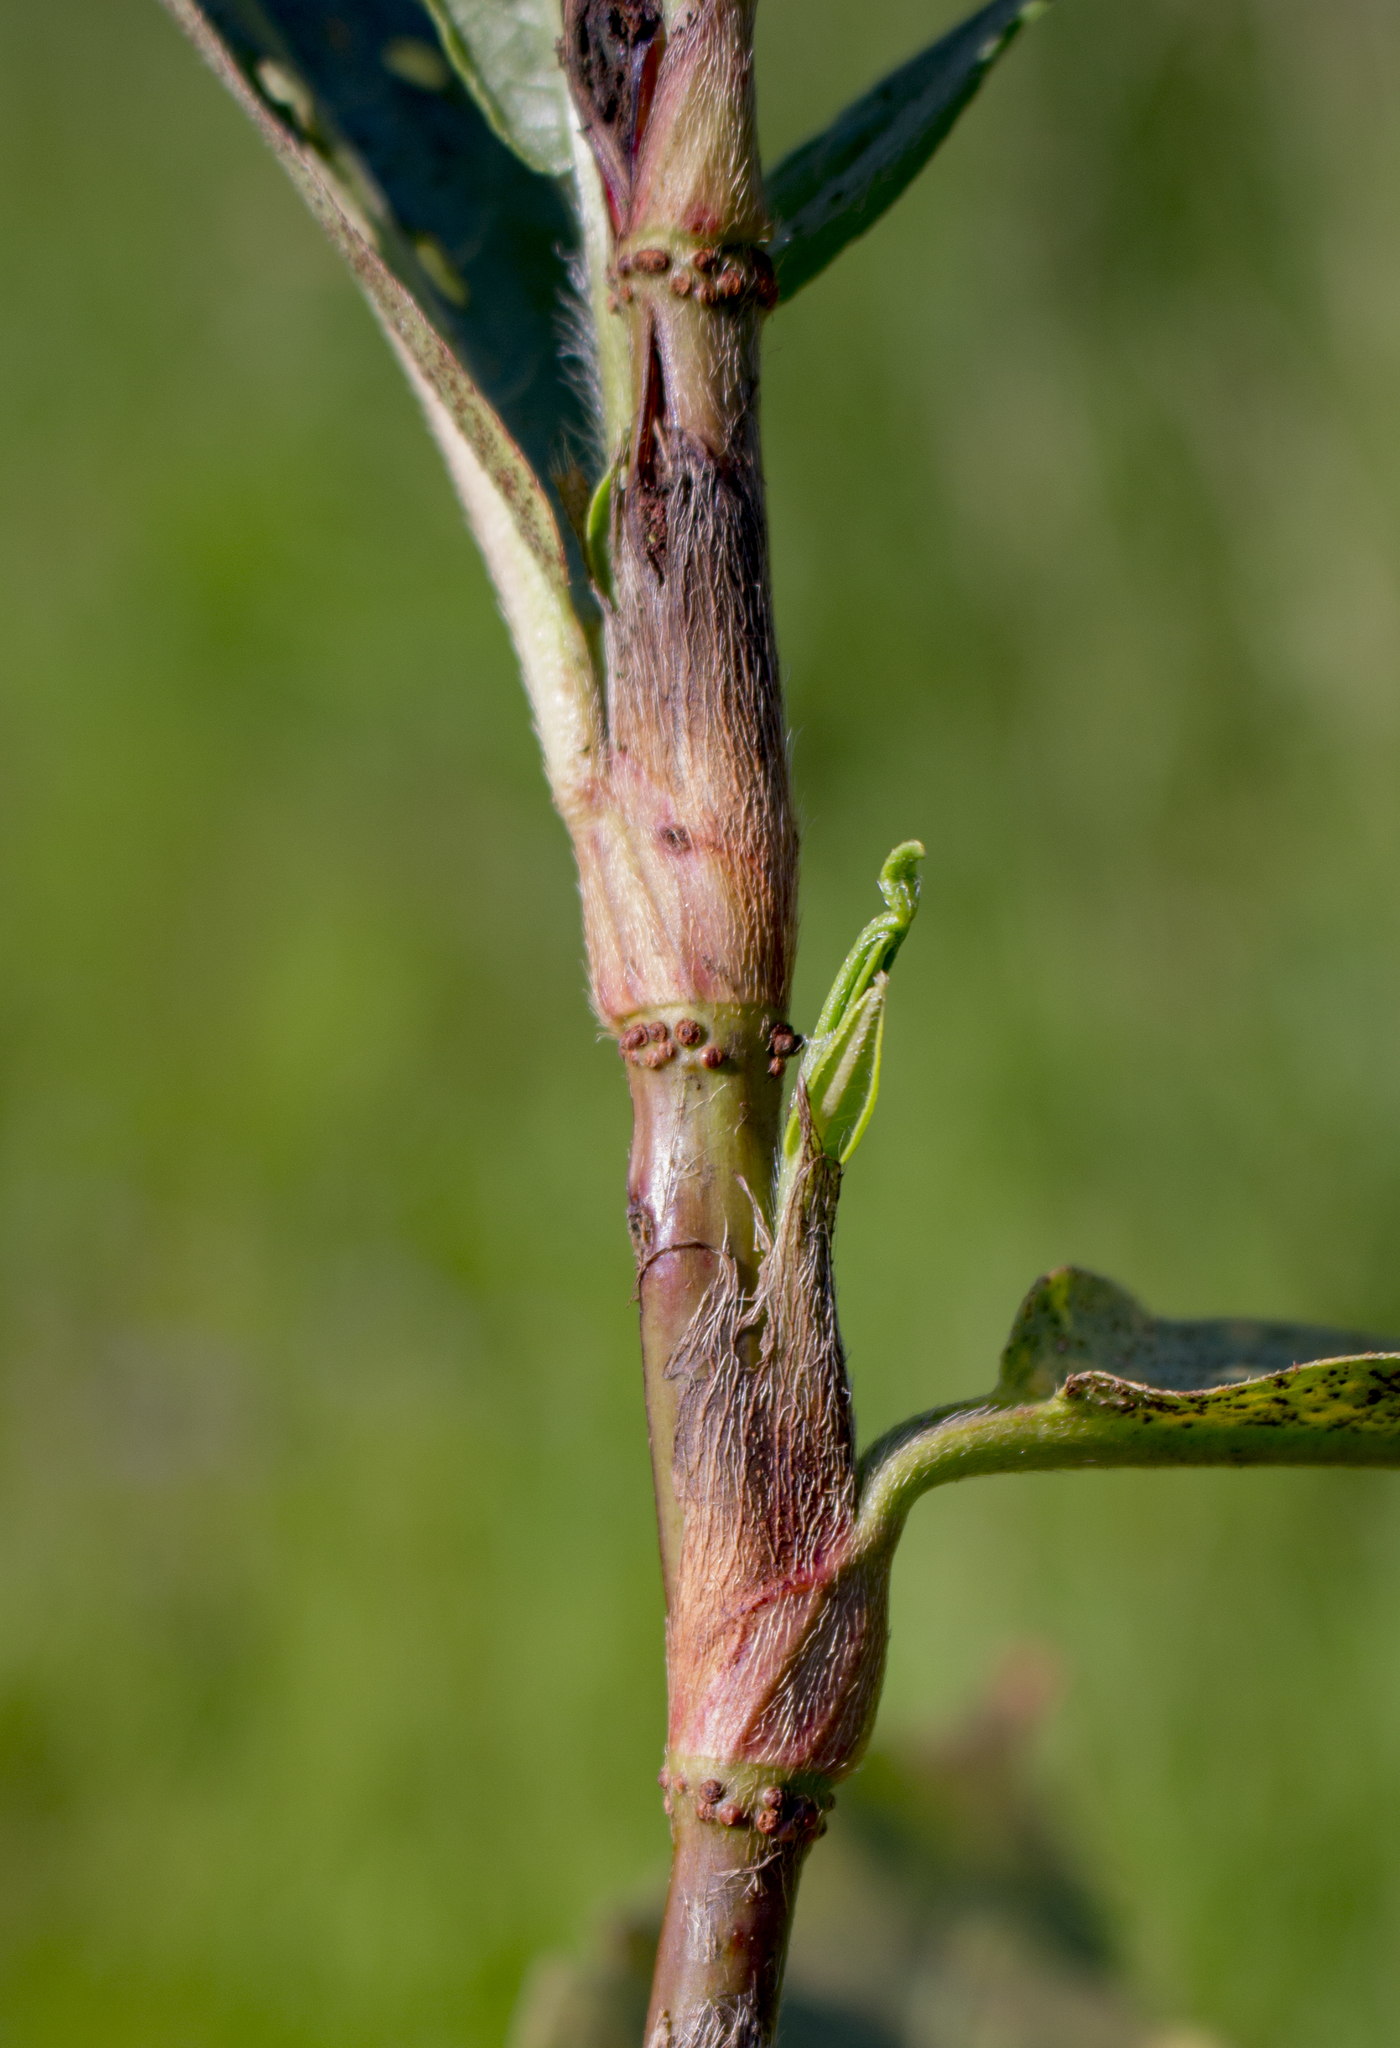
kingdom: Plantae
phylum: Tracheophyta
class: Magnoliopsida
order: Caryophyllales
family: Polygonaceae
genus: Persicaria
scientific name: Persicaria amphibia
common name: Amphibious bistort
